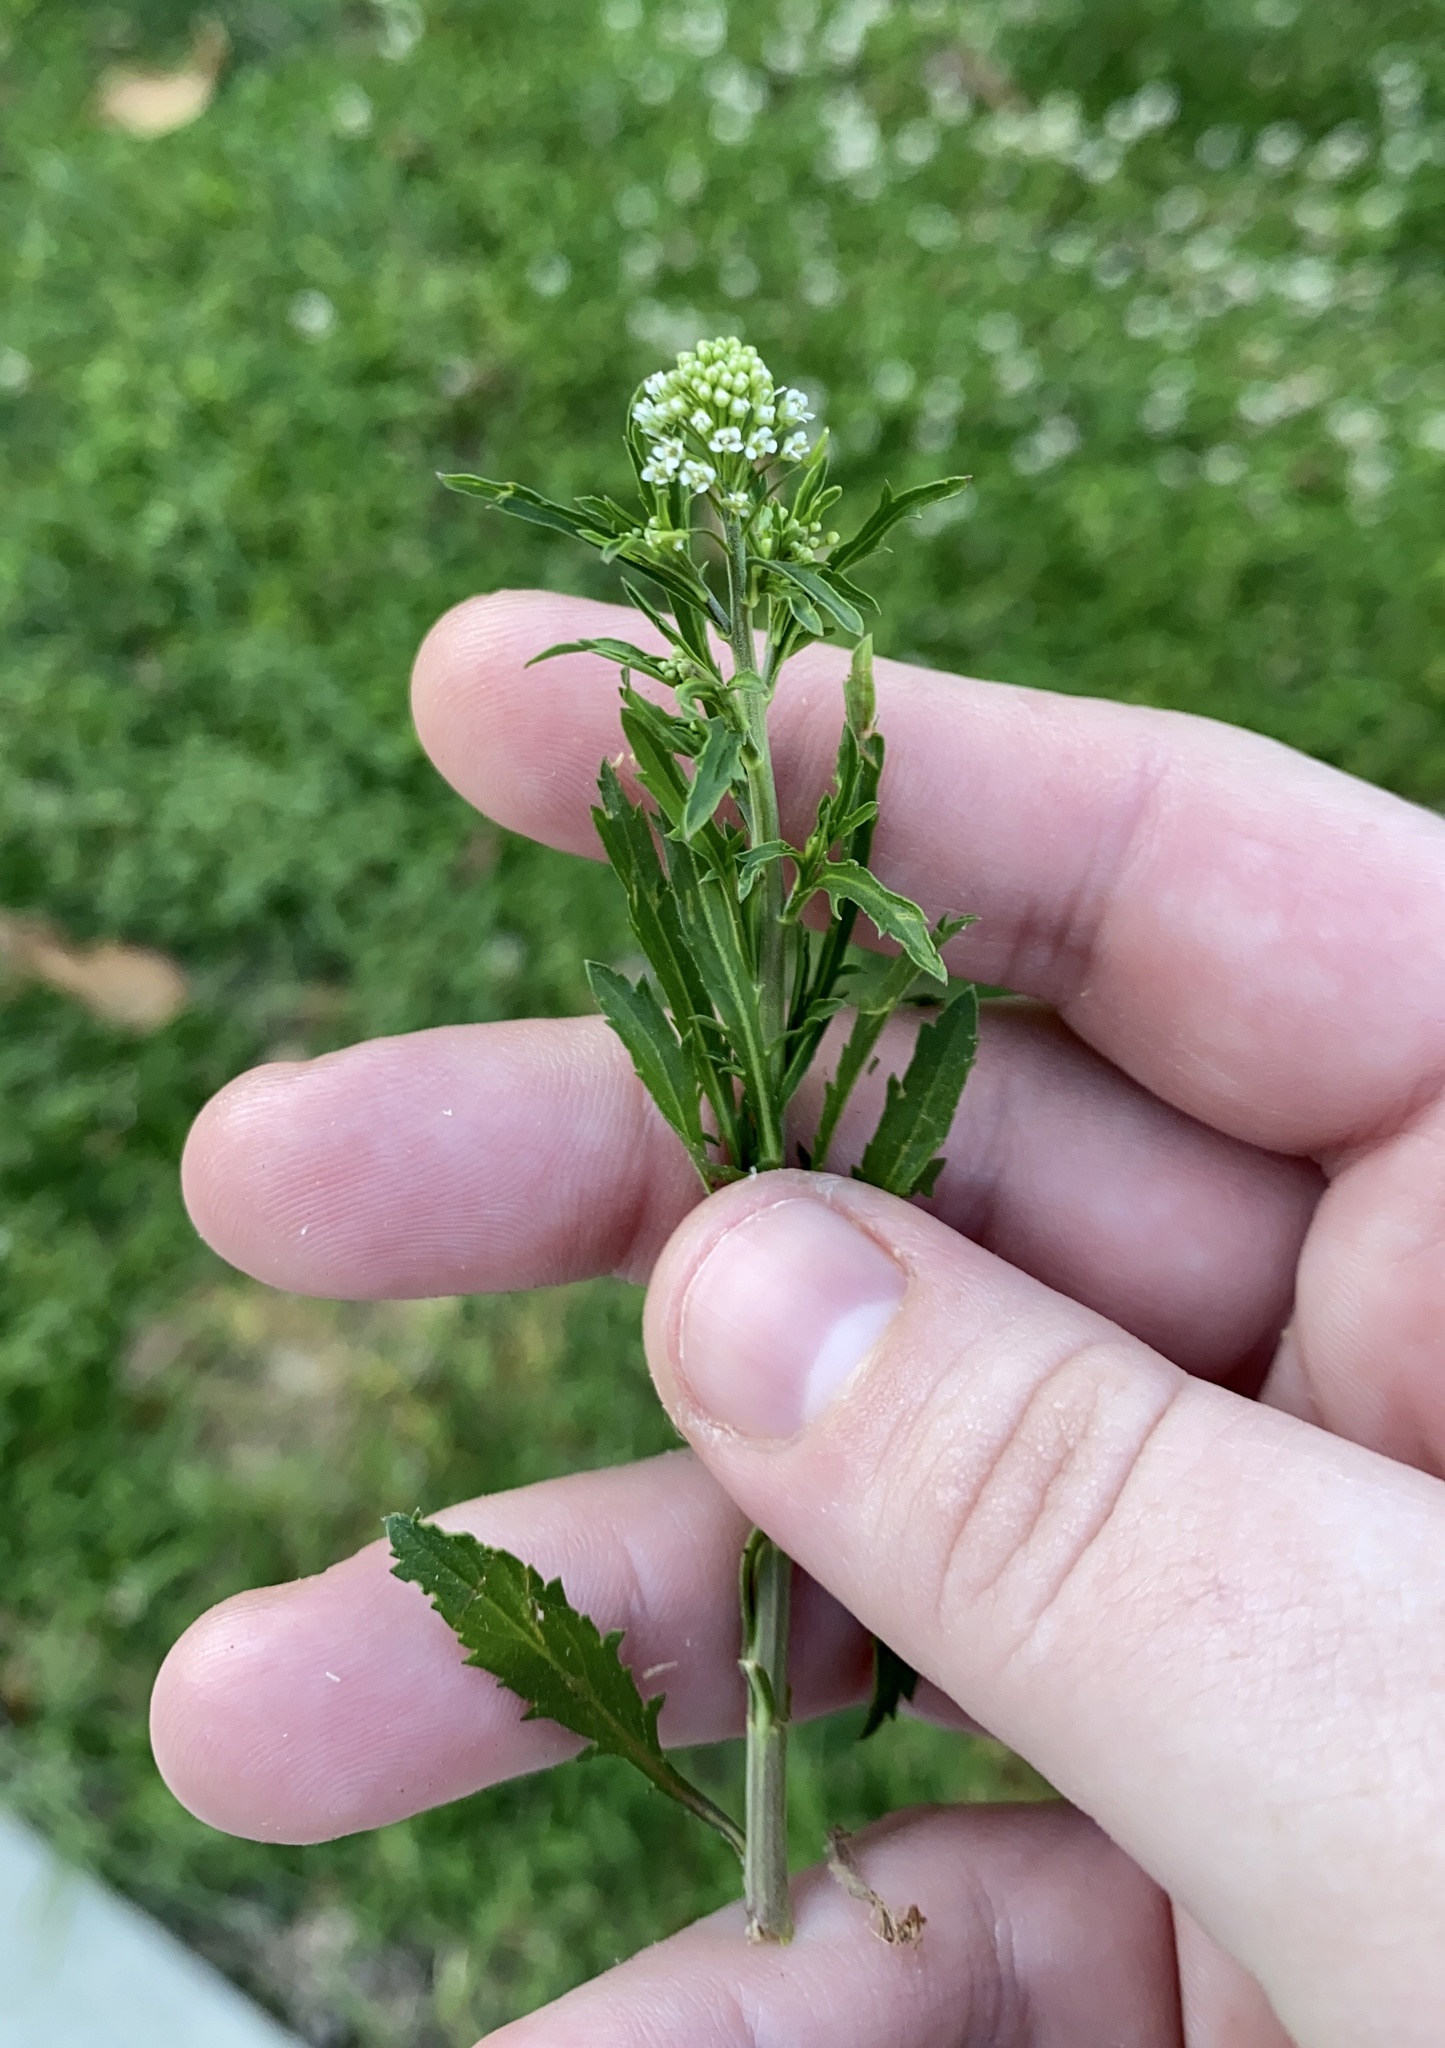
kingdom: Plantae
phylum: Tracheophyta
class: Magnoliopsida
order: Brassicales
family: Brassicaceae
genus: Lepidium
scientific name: Lepidium virginicum
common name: Least pepperwort
